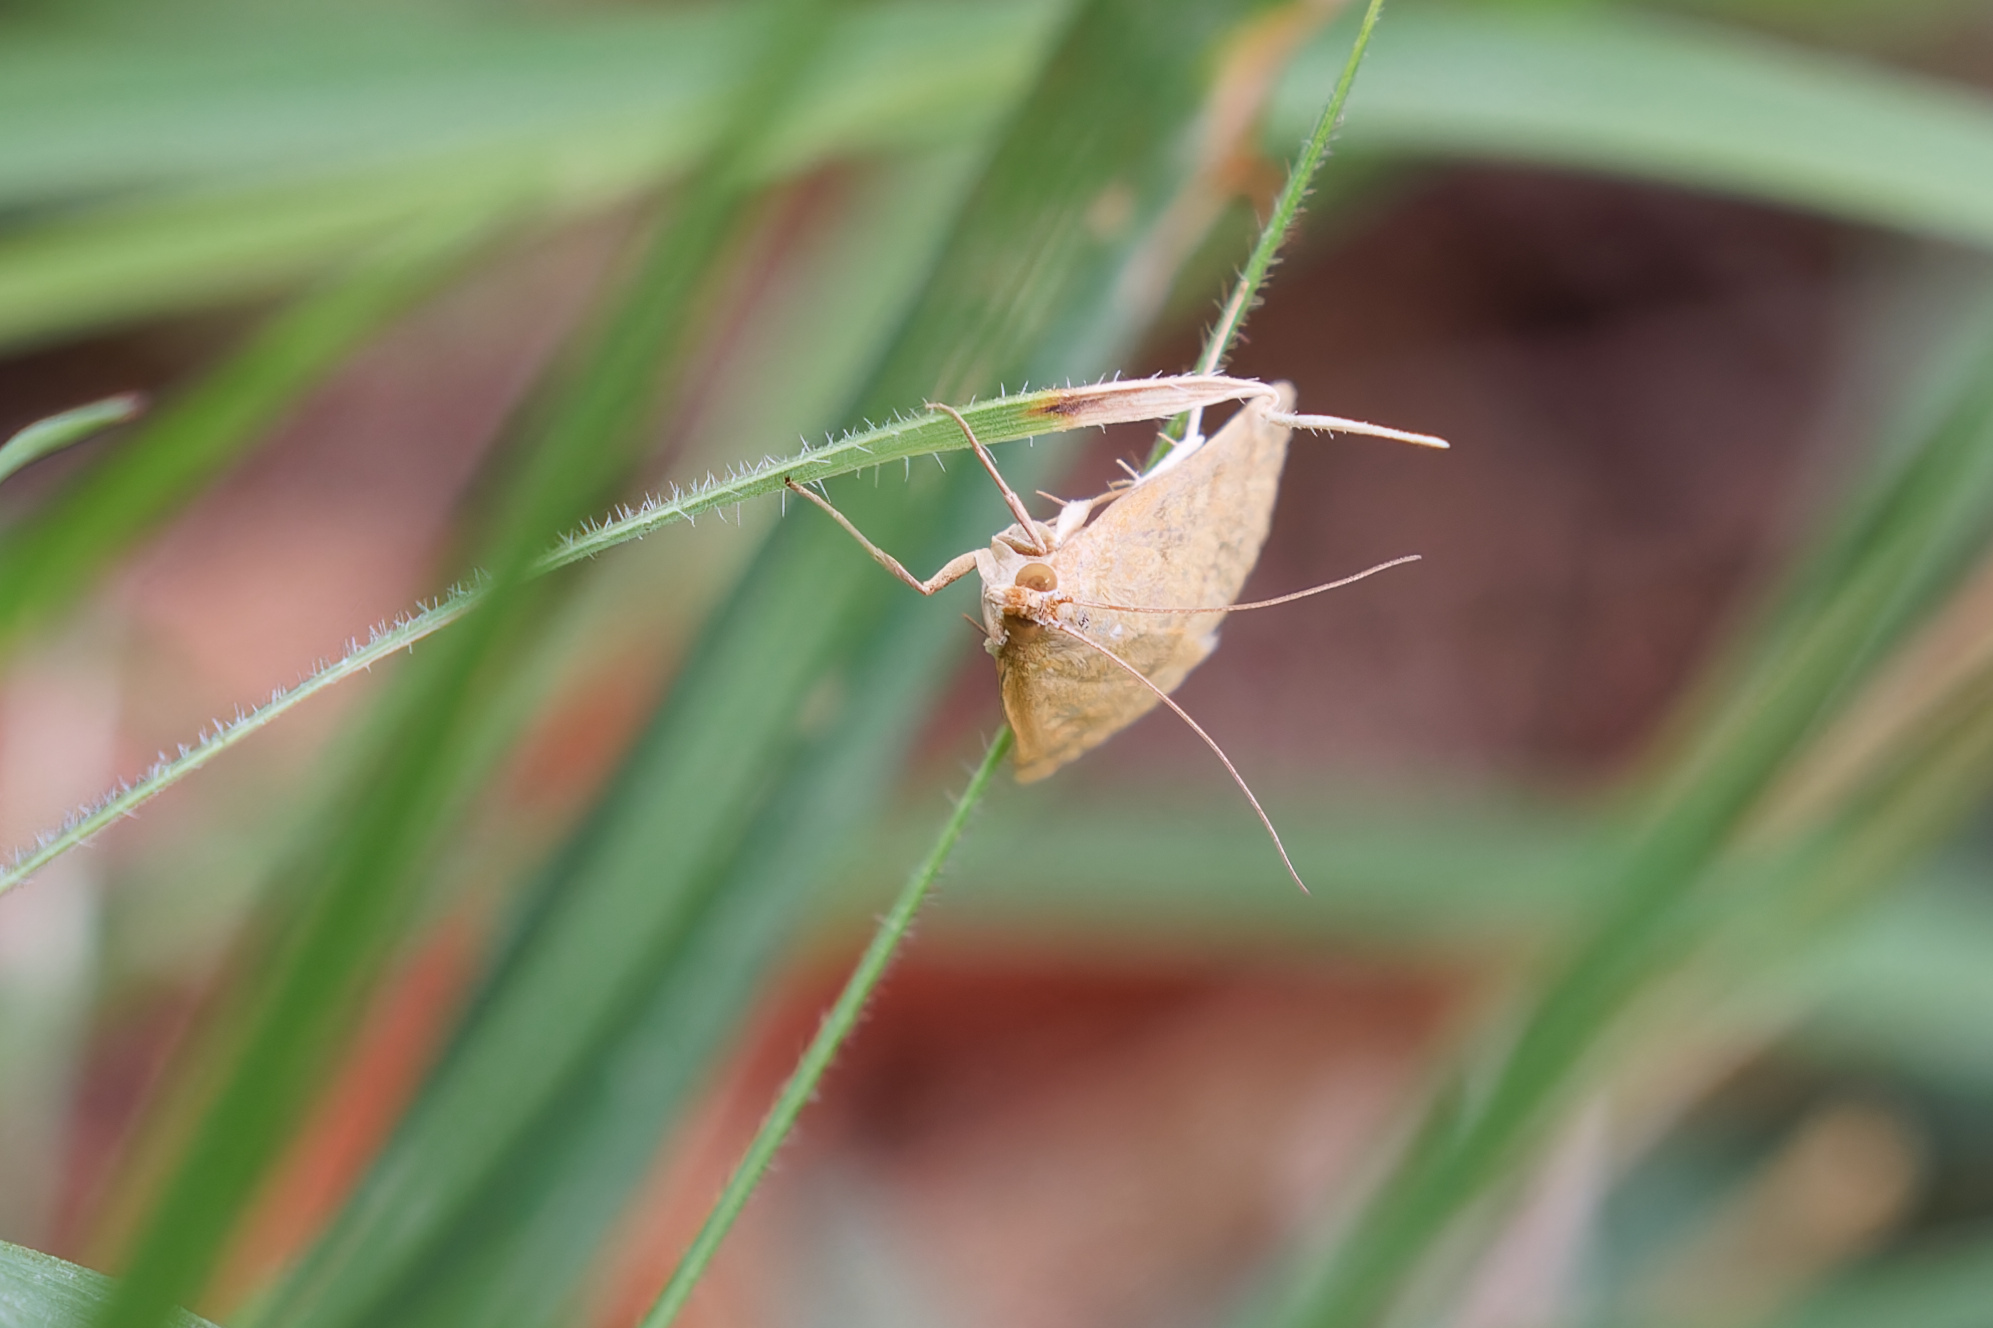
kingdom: Animalia
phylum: Arthropoda
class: Insecta
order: Lepidoptera
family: Crambidae
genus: Achyra
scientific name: Achyra rantalis
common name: Garden webworm
